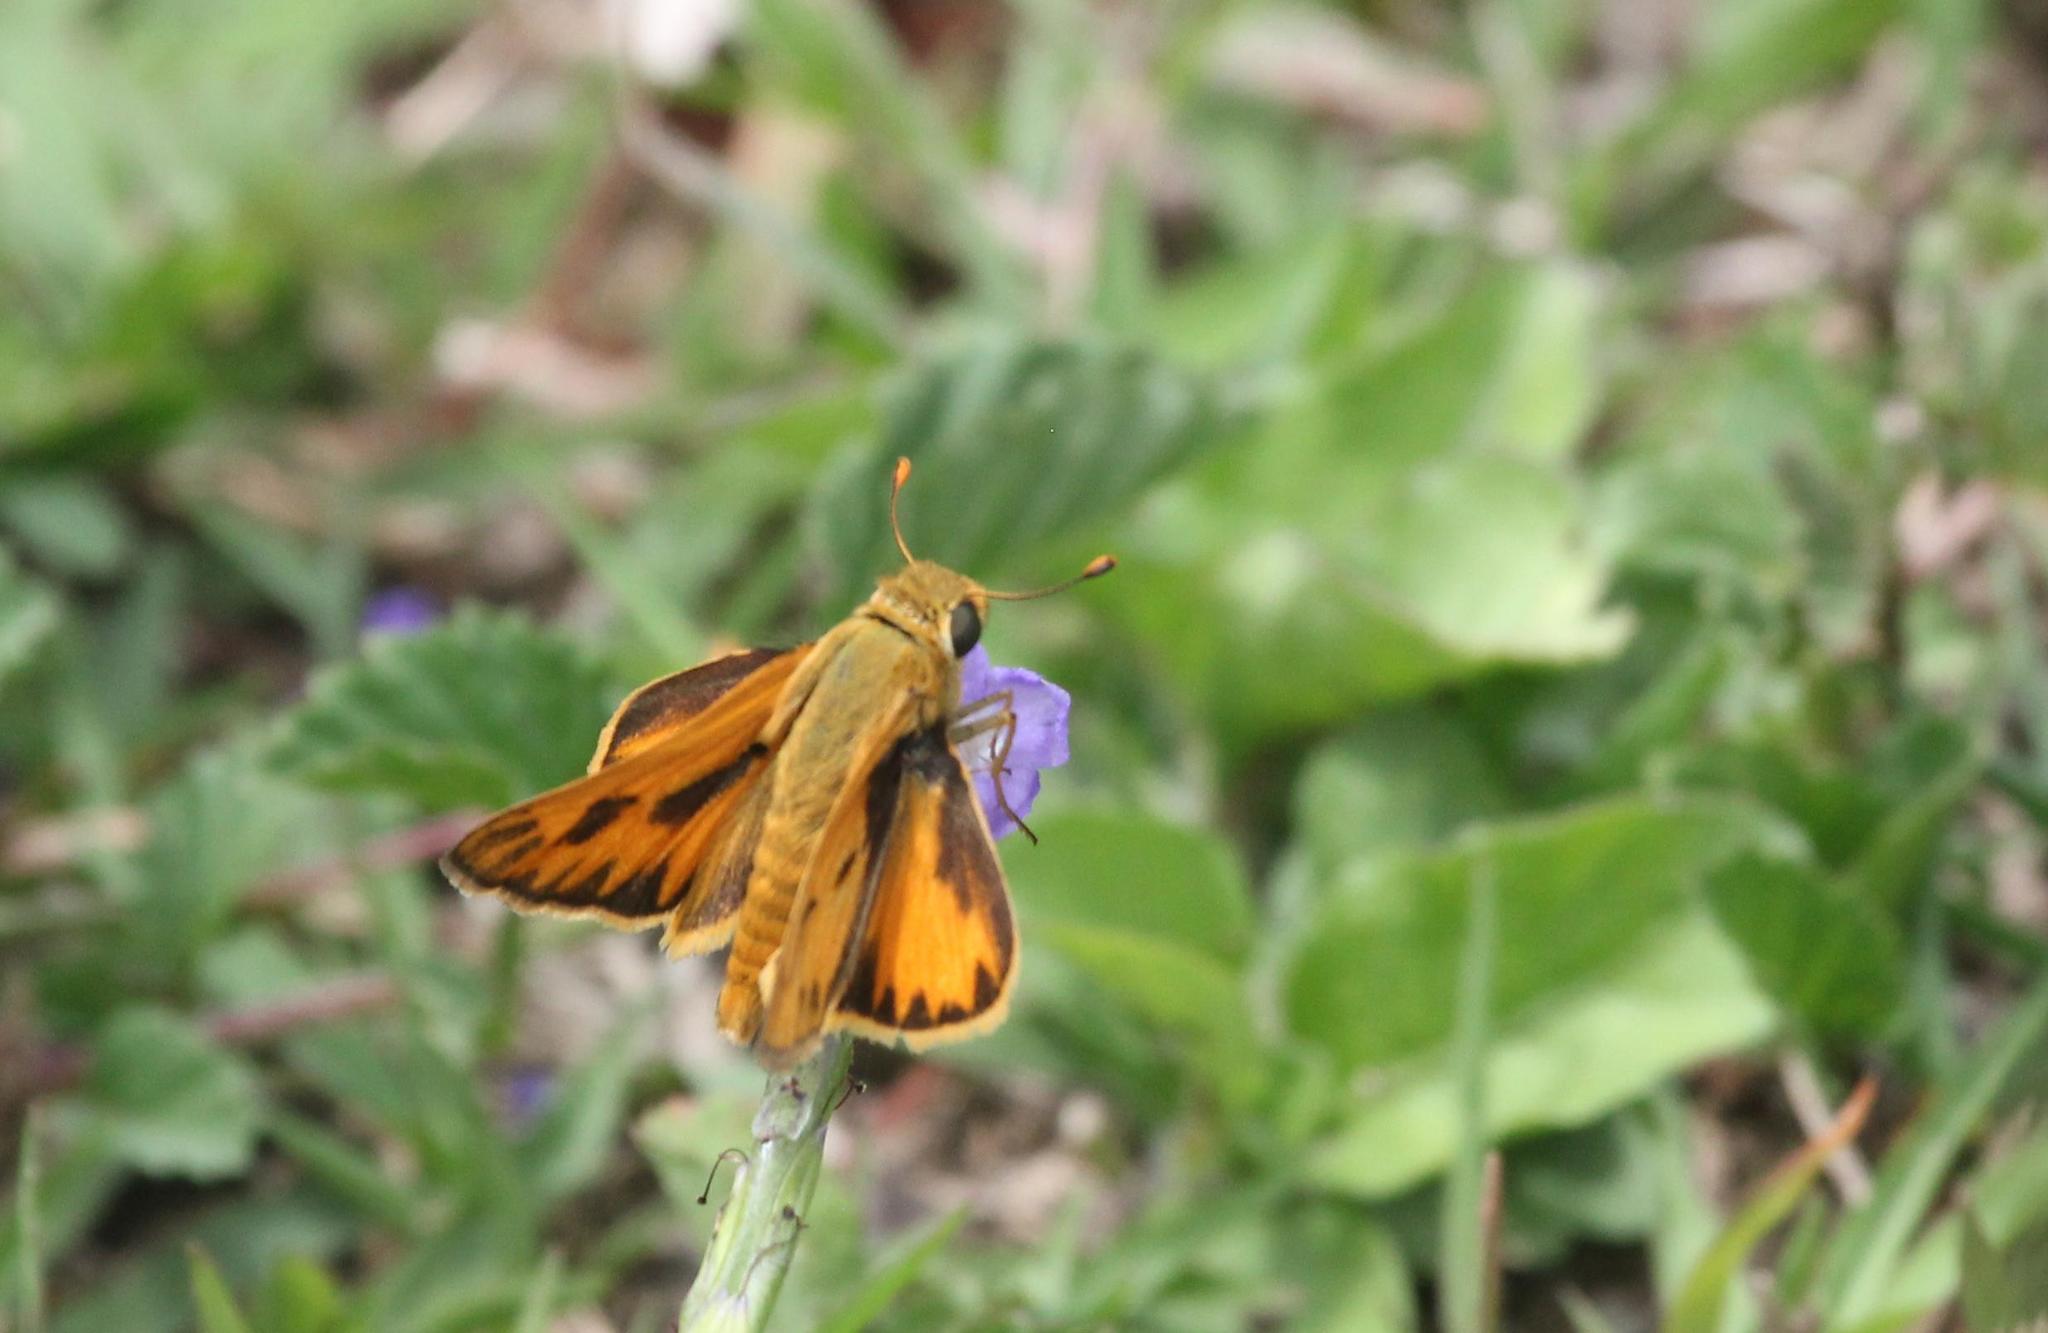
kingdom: Animalia
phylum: Arthropoda
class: Insecta
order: Lepidoptera
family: Hesperiidae
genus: Hylephila
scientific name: Hylephila phyleus
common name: Fiery skipper
